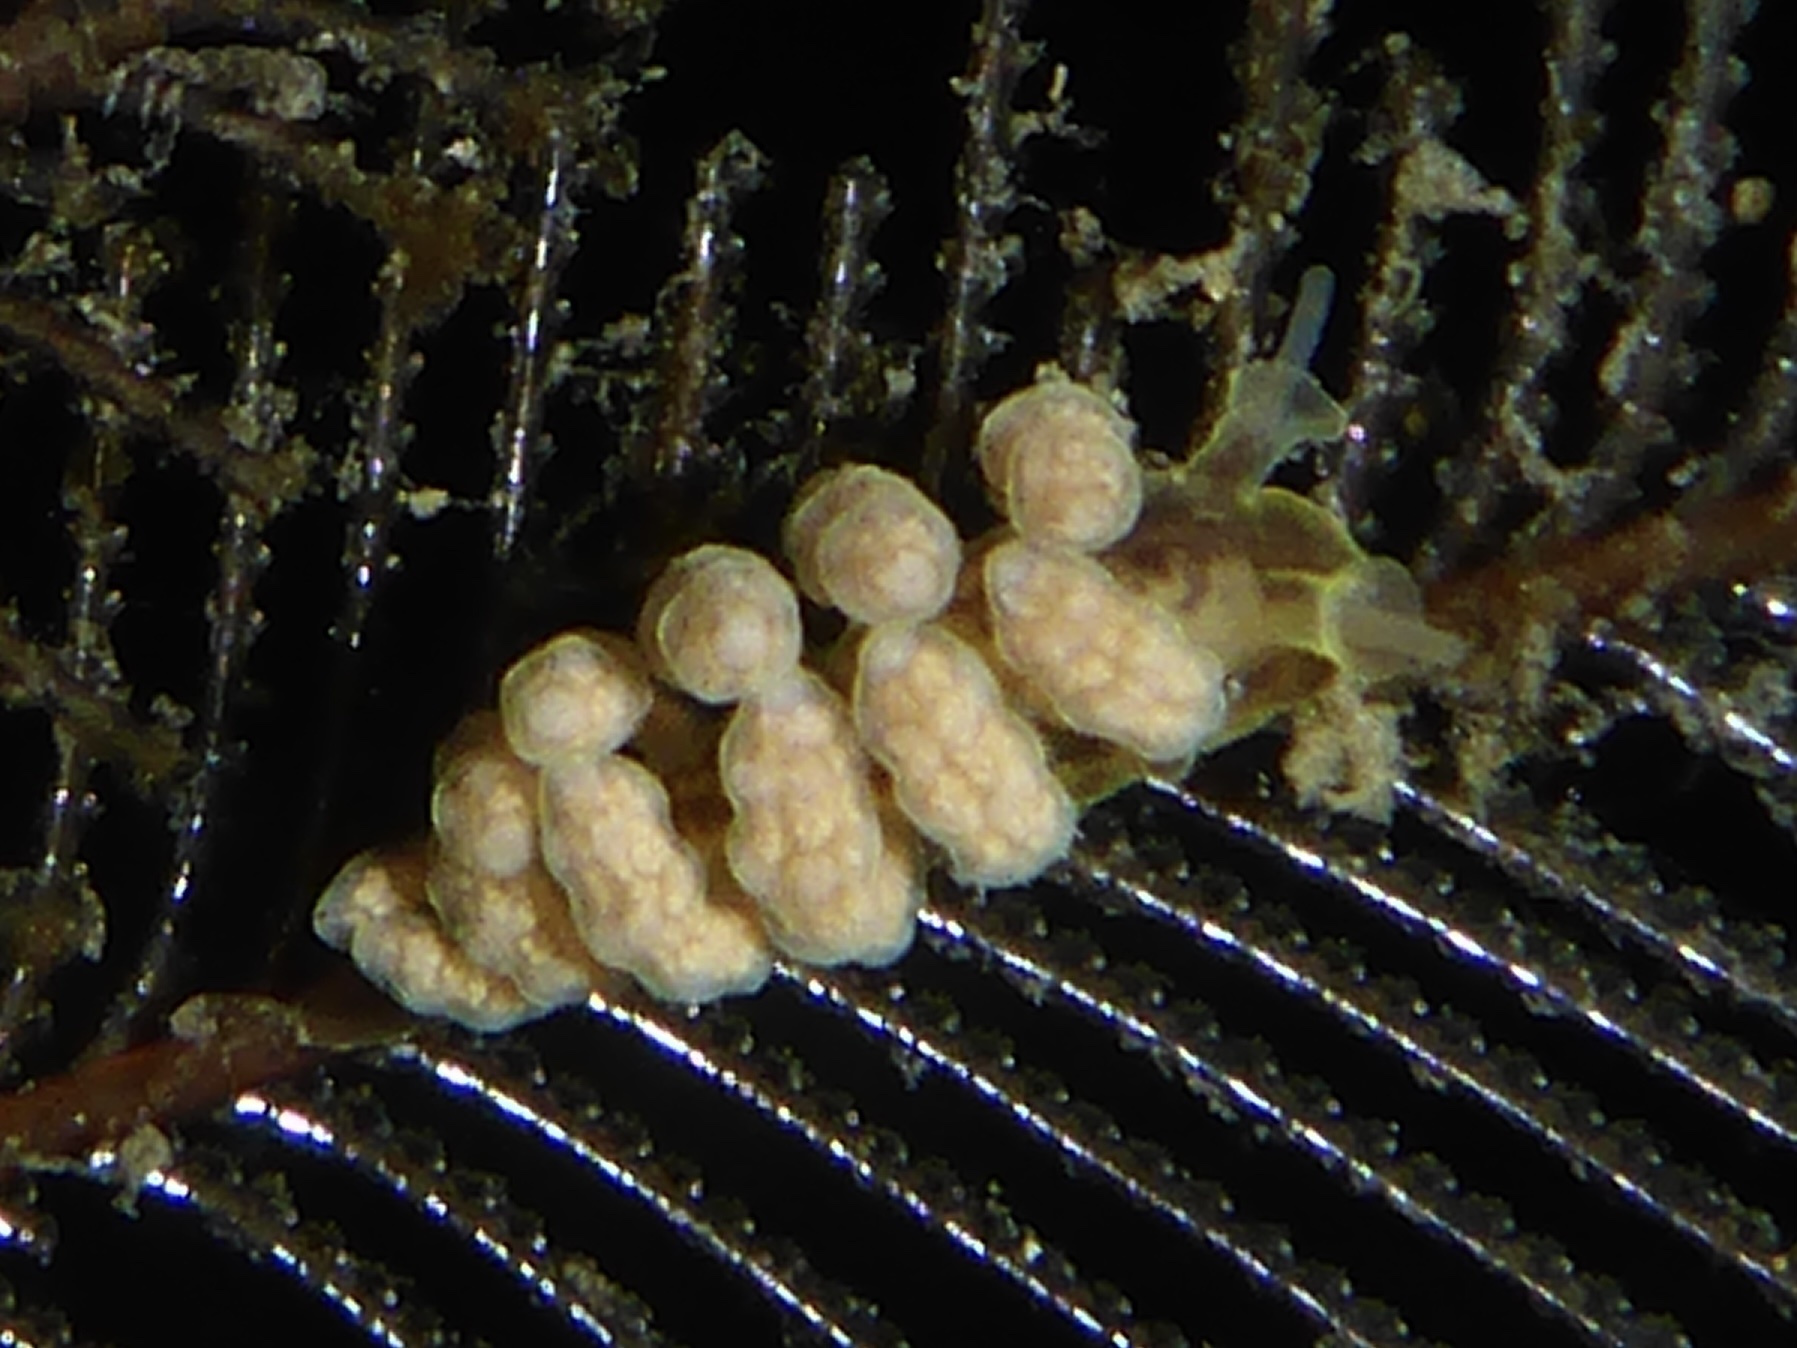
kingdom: Animalia
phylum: Mollusca
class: Gastropoda
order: Nudibranchia
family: Dotidae
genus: Doto
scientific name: Doto columbiana
